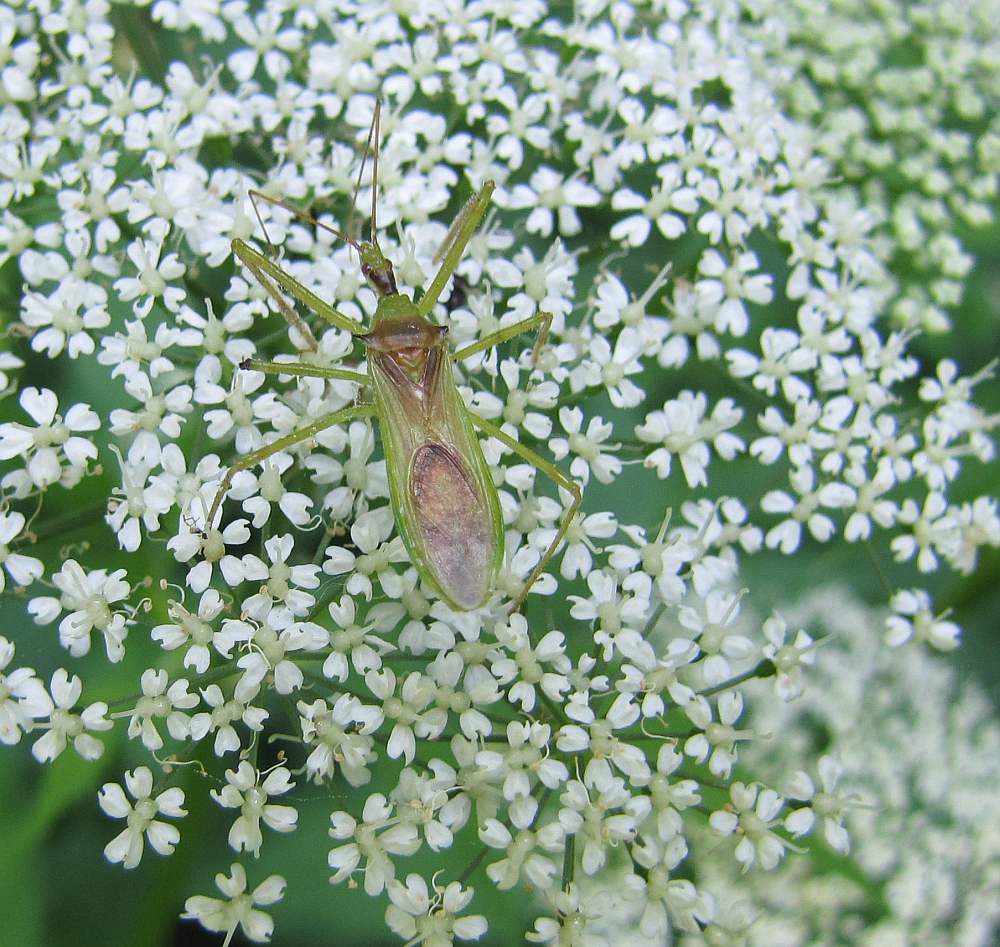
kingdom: Animalia
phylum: Arthropoda
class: Insecta
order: Hemiptera
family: Reduviidae
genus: Zelus
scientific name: Zelus luridus
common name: Pale green assassin bug
